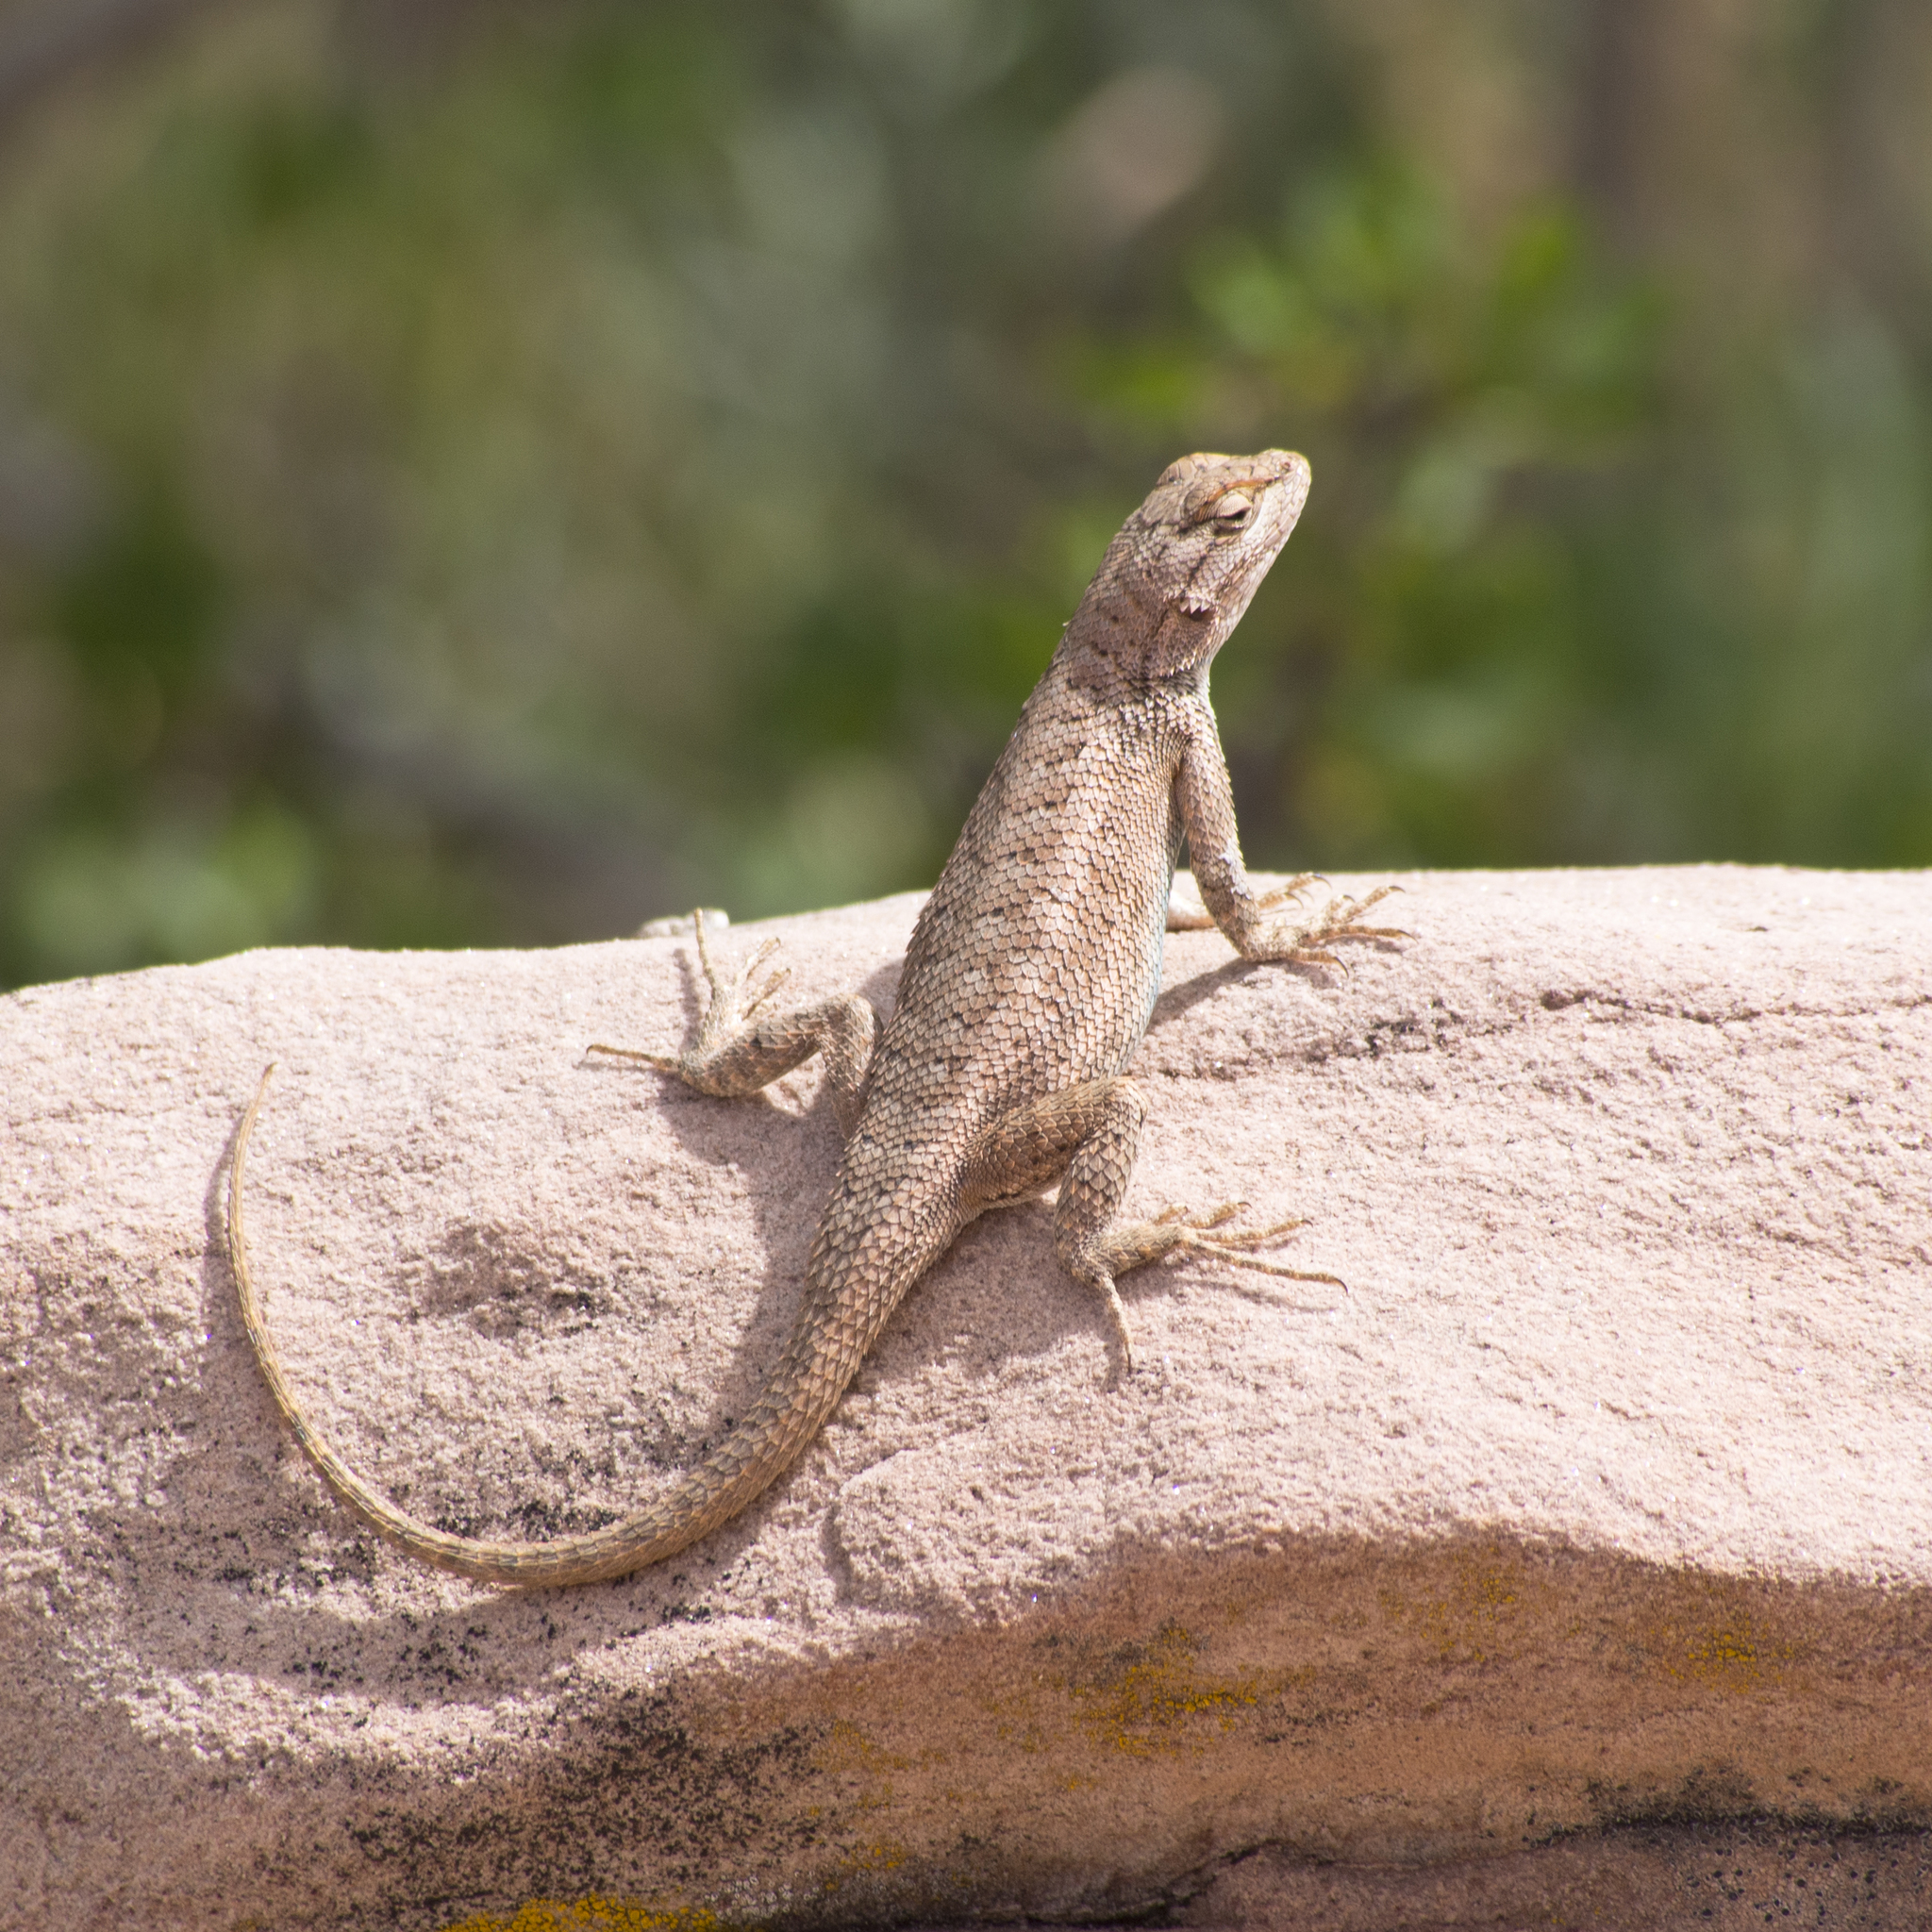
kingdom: Animalia
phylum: Chordata
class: Squamata
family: Phrynosomatidae
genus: Sceloporus
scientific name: Sceloporus tristichus
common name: Plateau fence lizard
